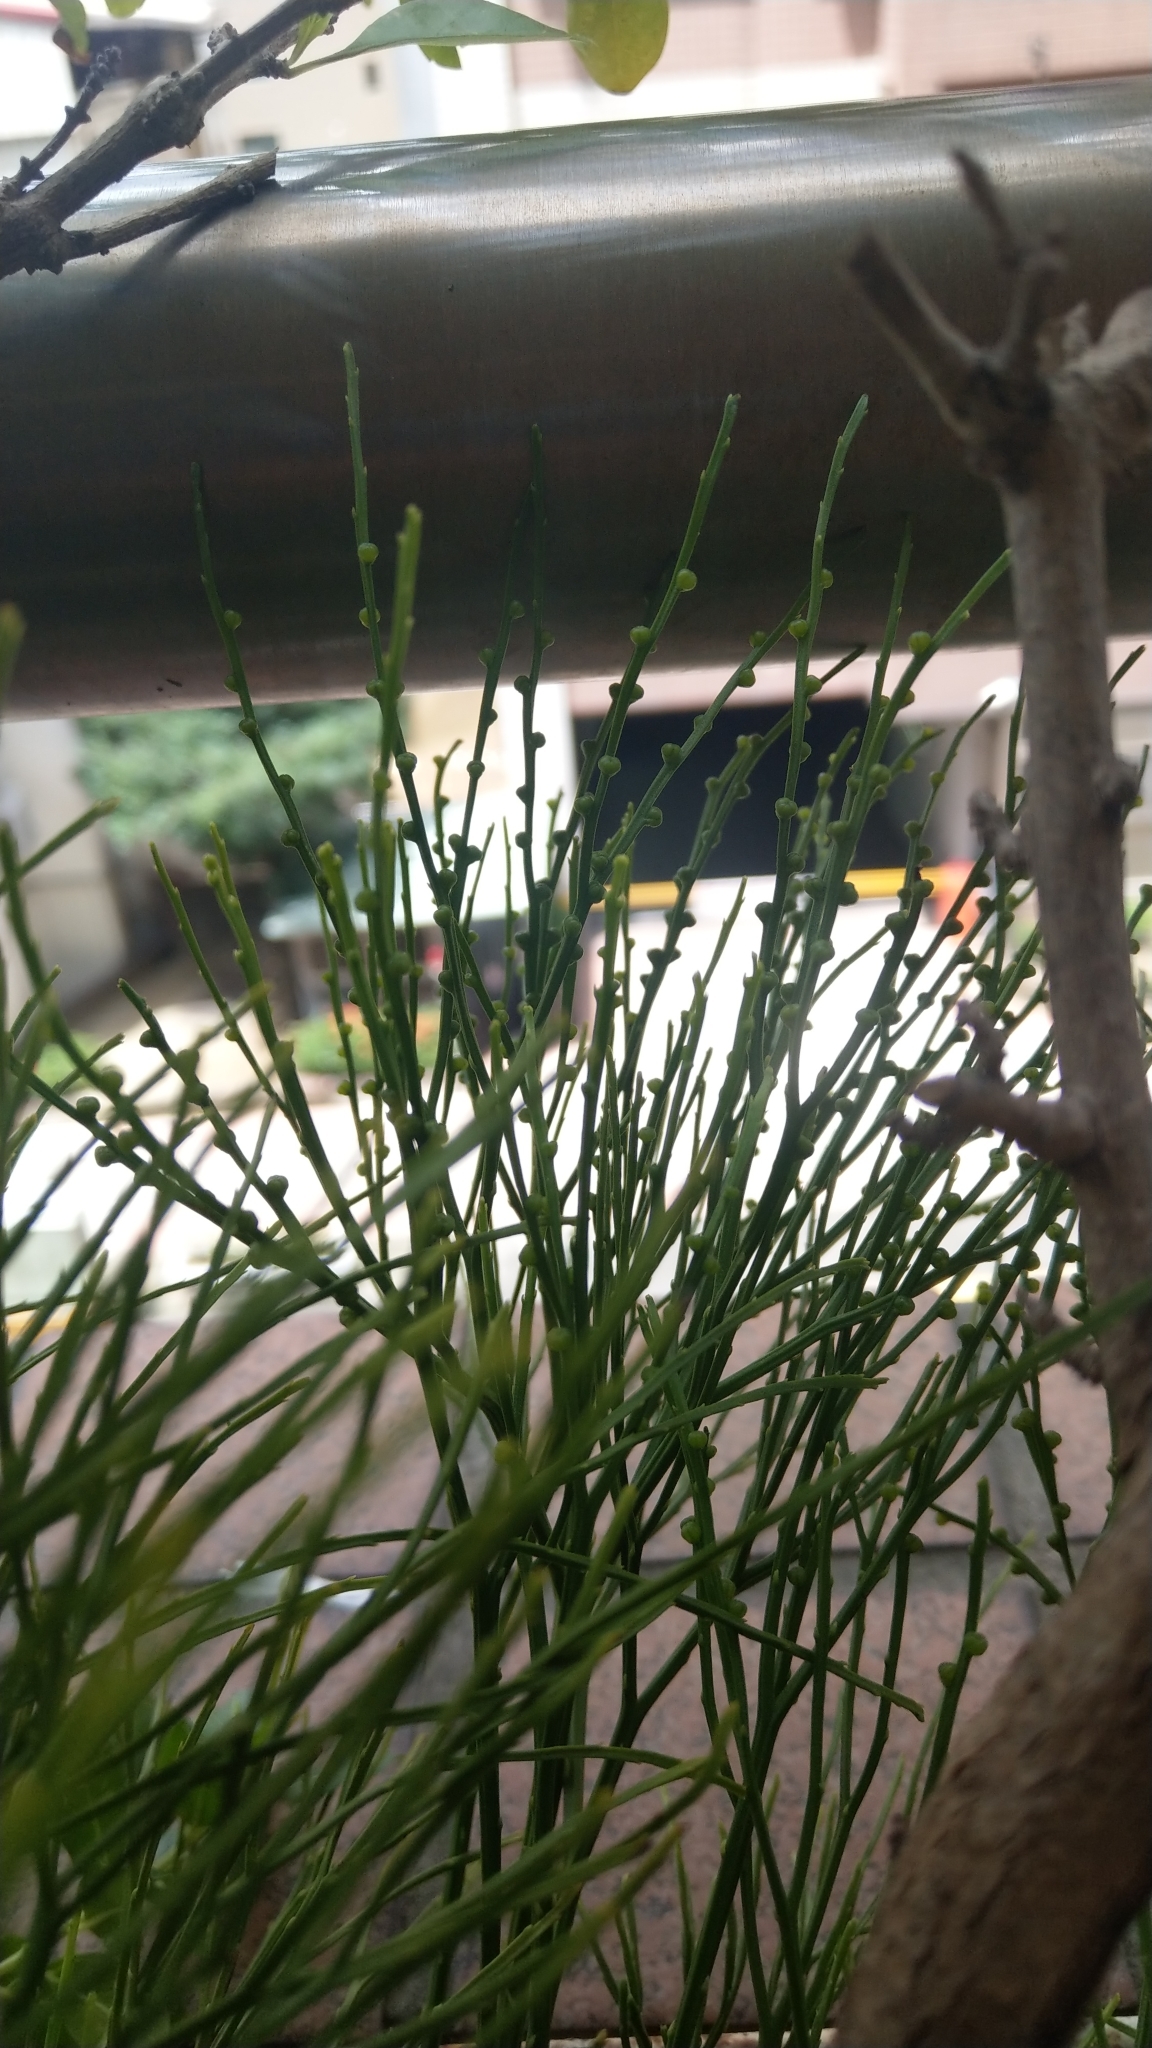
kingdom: Plantae
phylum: Tracheophyta
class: Polypodiopsida
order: Psilotales
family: Psilotaceae
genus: Psilotum
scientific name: Psilotum nudum
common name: Skeleton fork fern
